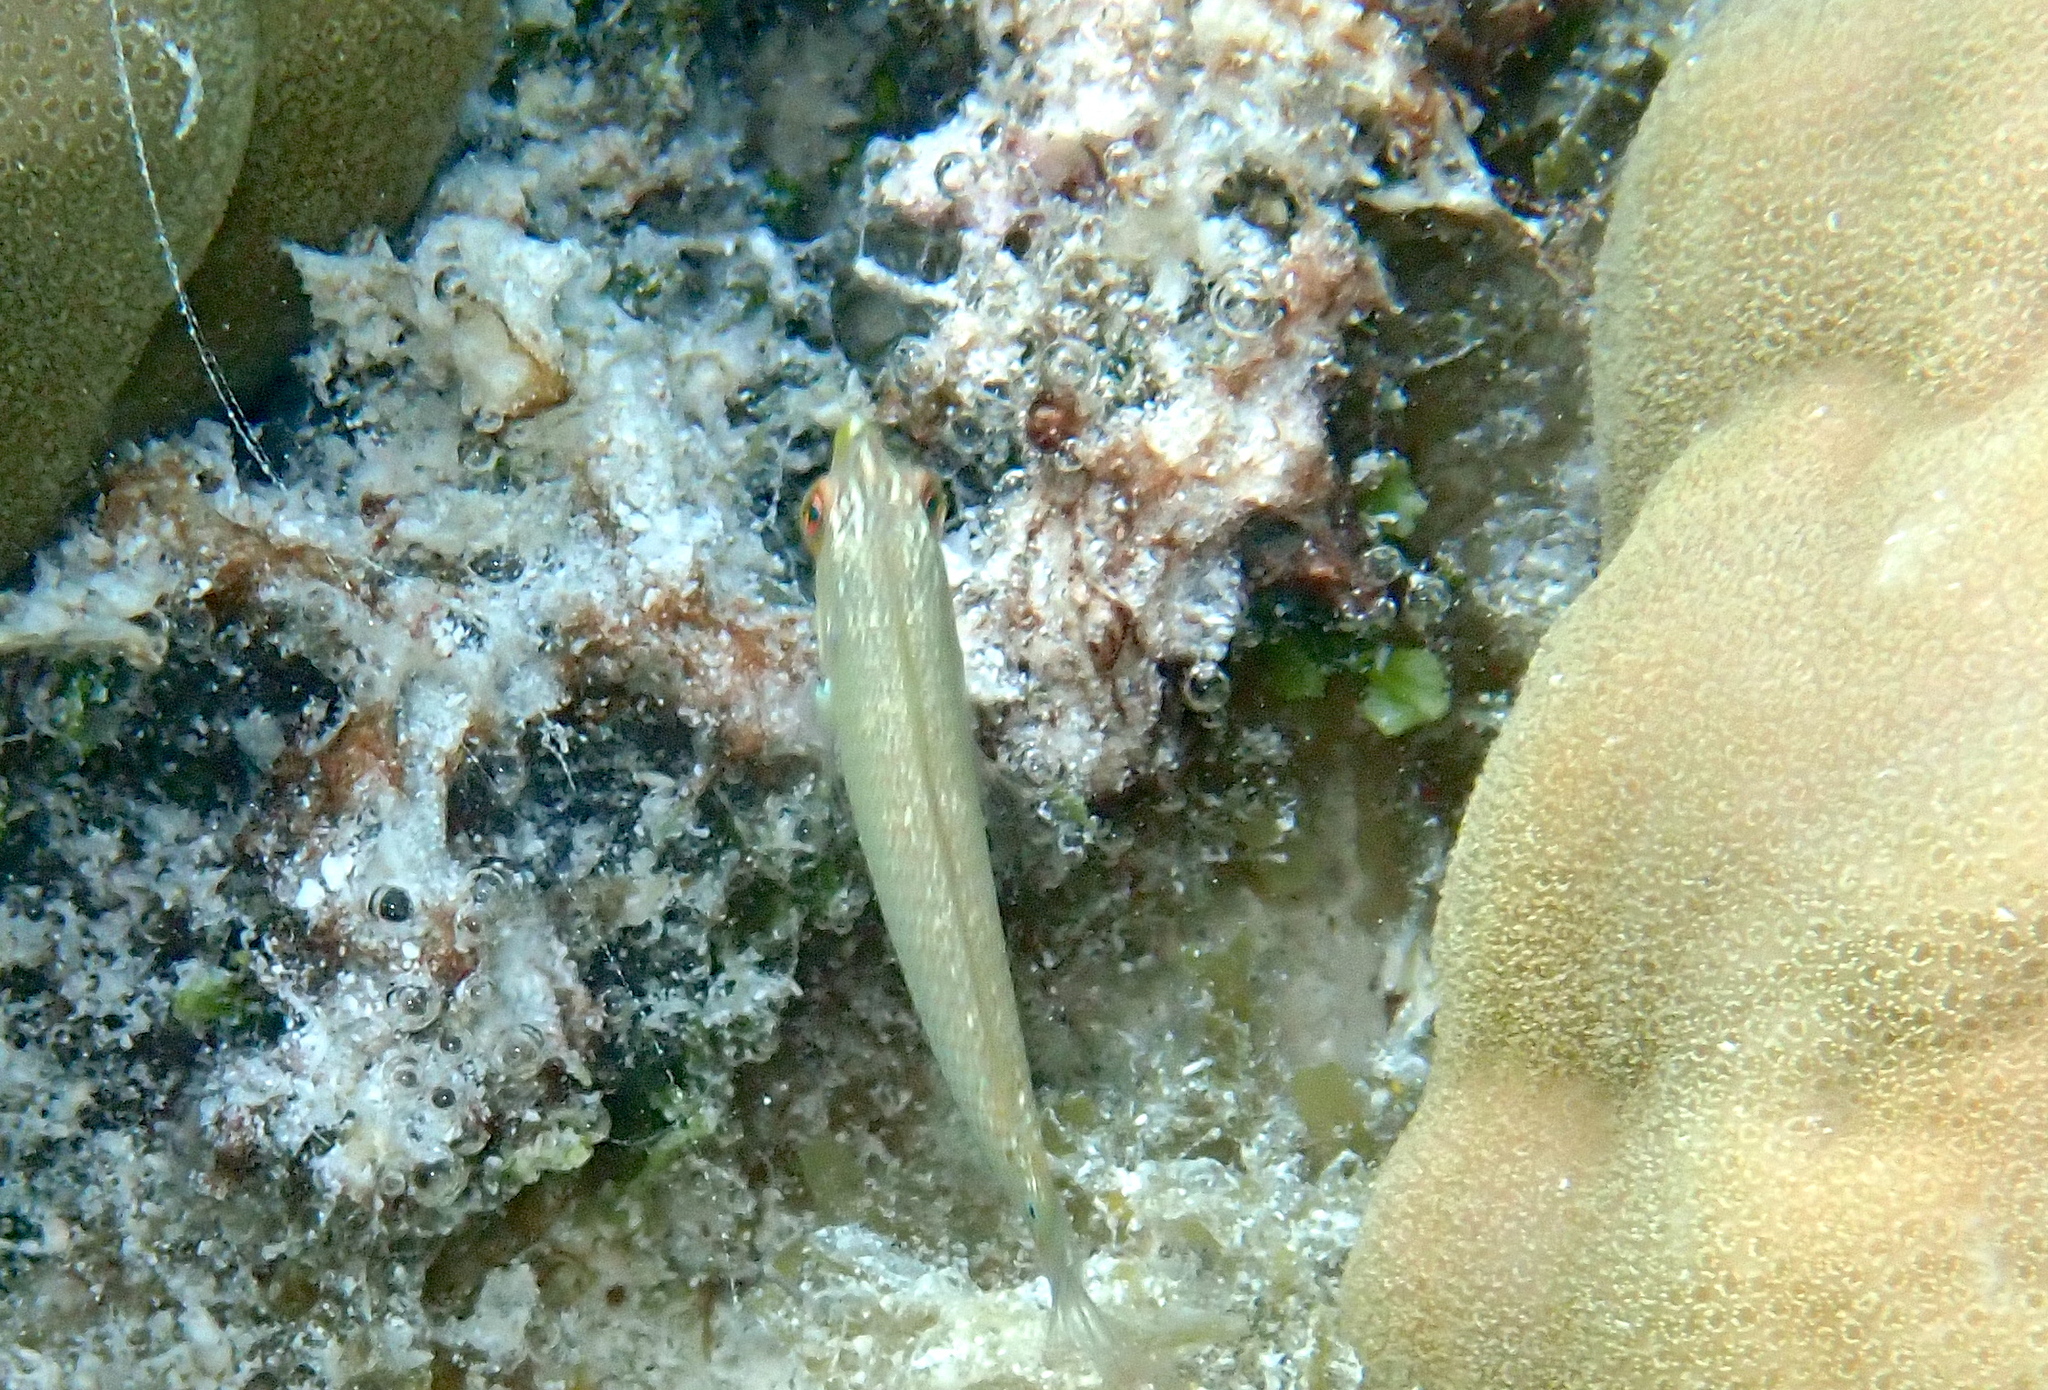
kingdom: Animalia
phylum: Chordata
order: Perciformes
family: Labridae
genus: Halichoeres
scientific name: Halichoeres trimaculatus
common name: Three-spot wrasse
